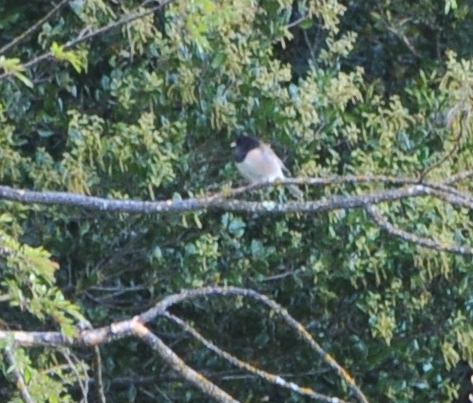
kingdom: Animalia
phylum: Chordata
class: Aves
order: Passeriformes
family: Passerellidae
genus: Junco
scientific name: Junco hyemalis
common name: Dark-eyed junco
